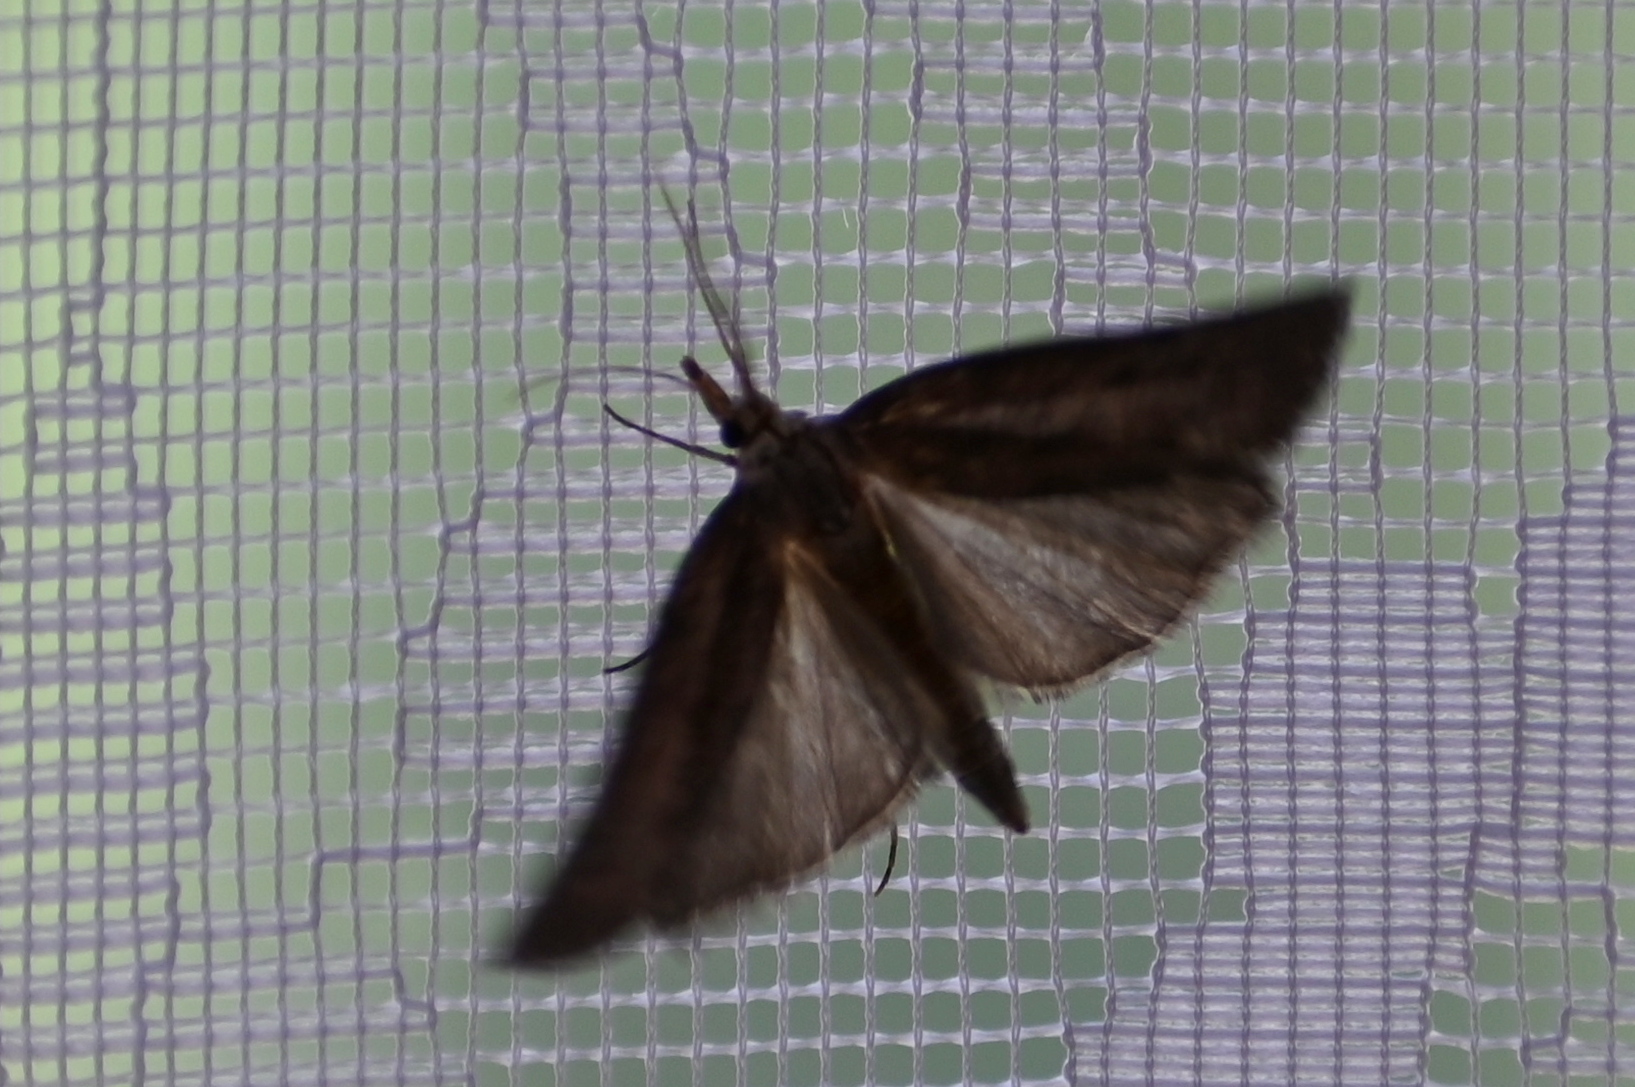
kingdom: Animalia
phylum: Arthropoda
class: Insecta
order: Lepidoptera
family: Pyralidae
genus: Aphomia
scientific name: Aphomia sociella
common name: Bee moth
